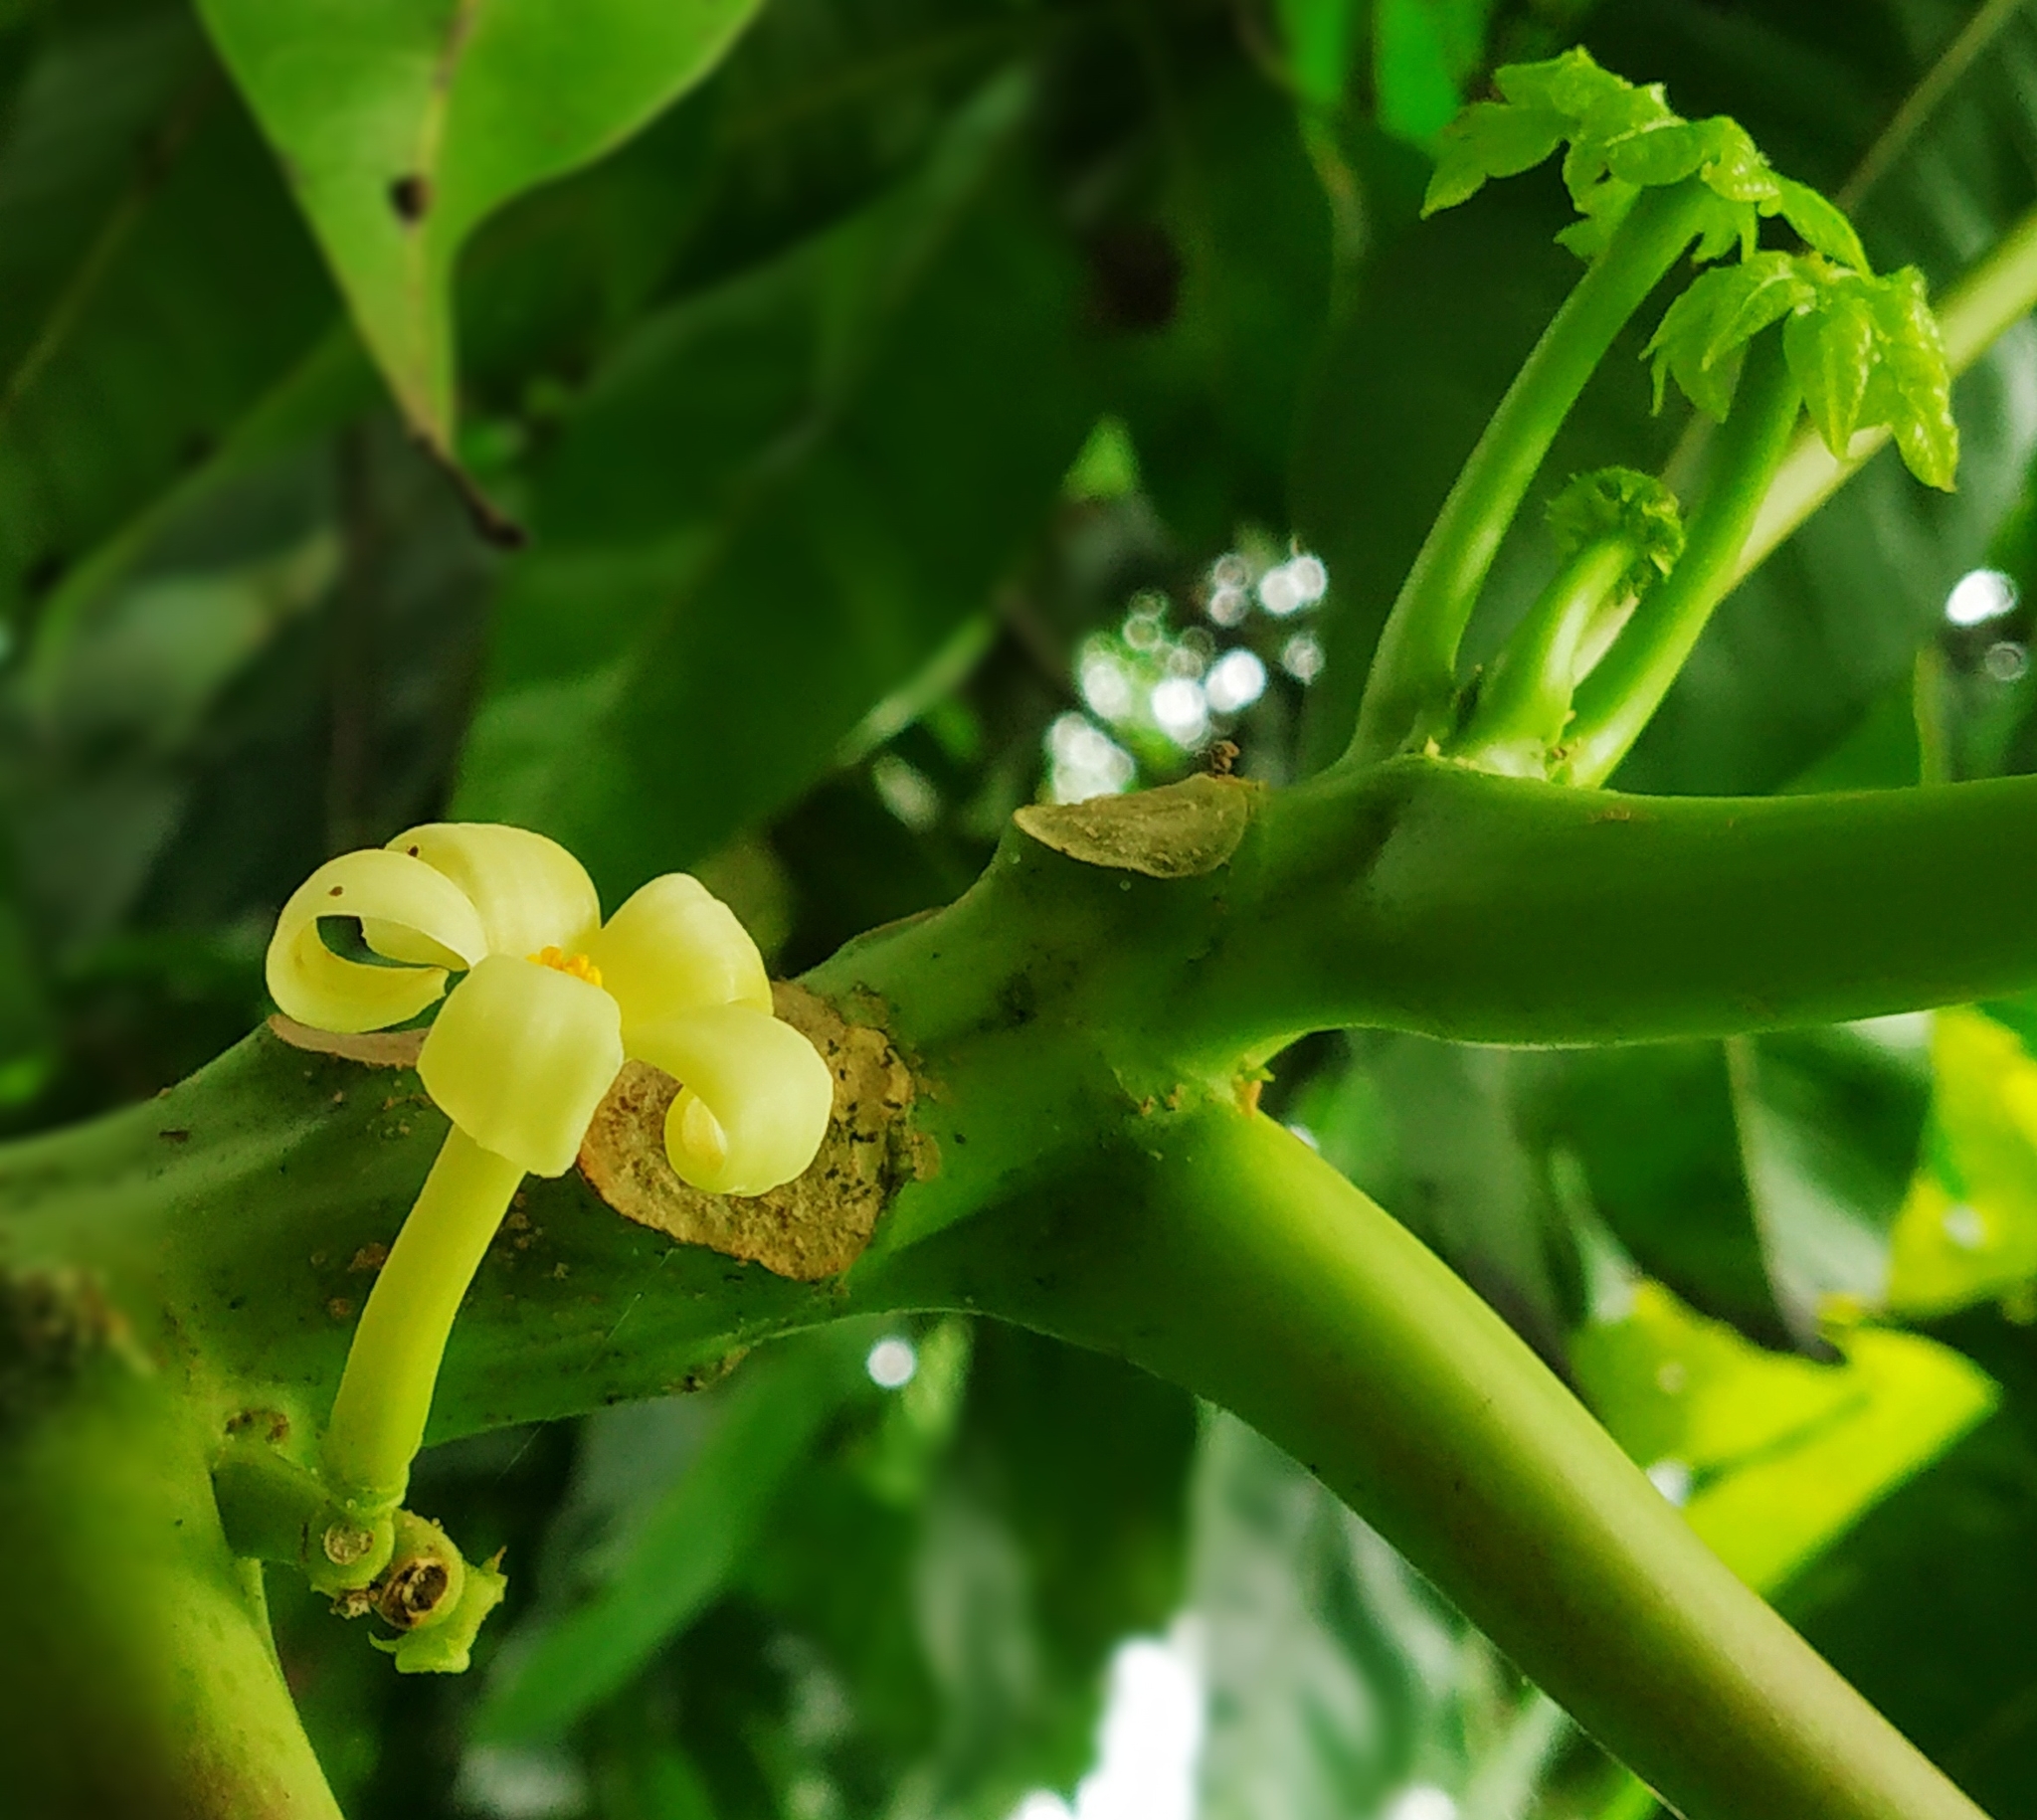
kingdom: Plantae
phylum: Tracheophyta
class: Magnoliopsida
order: Brassicales
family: Caricaceae
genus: Carica
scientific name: Carica papaya
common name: Papaya
